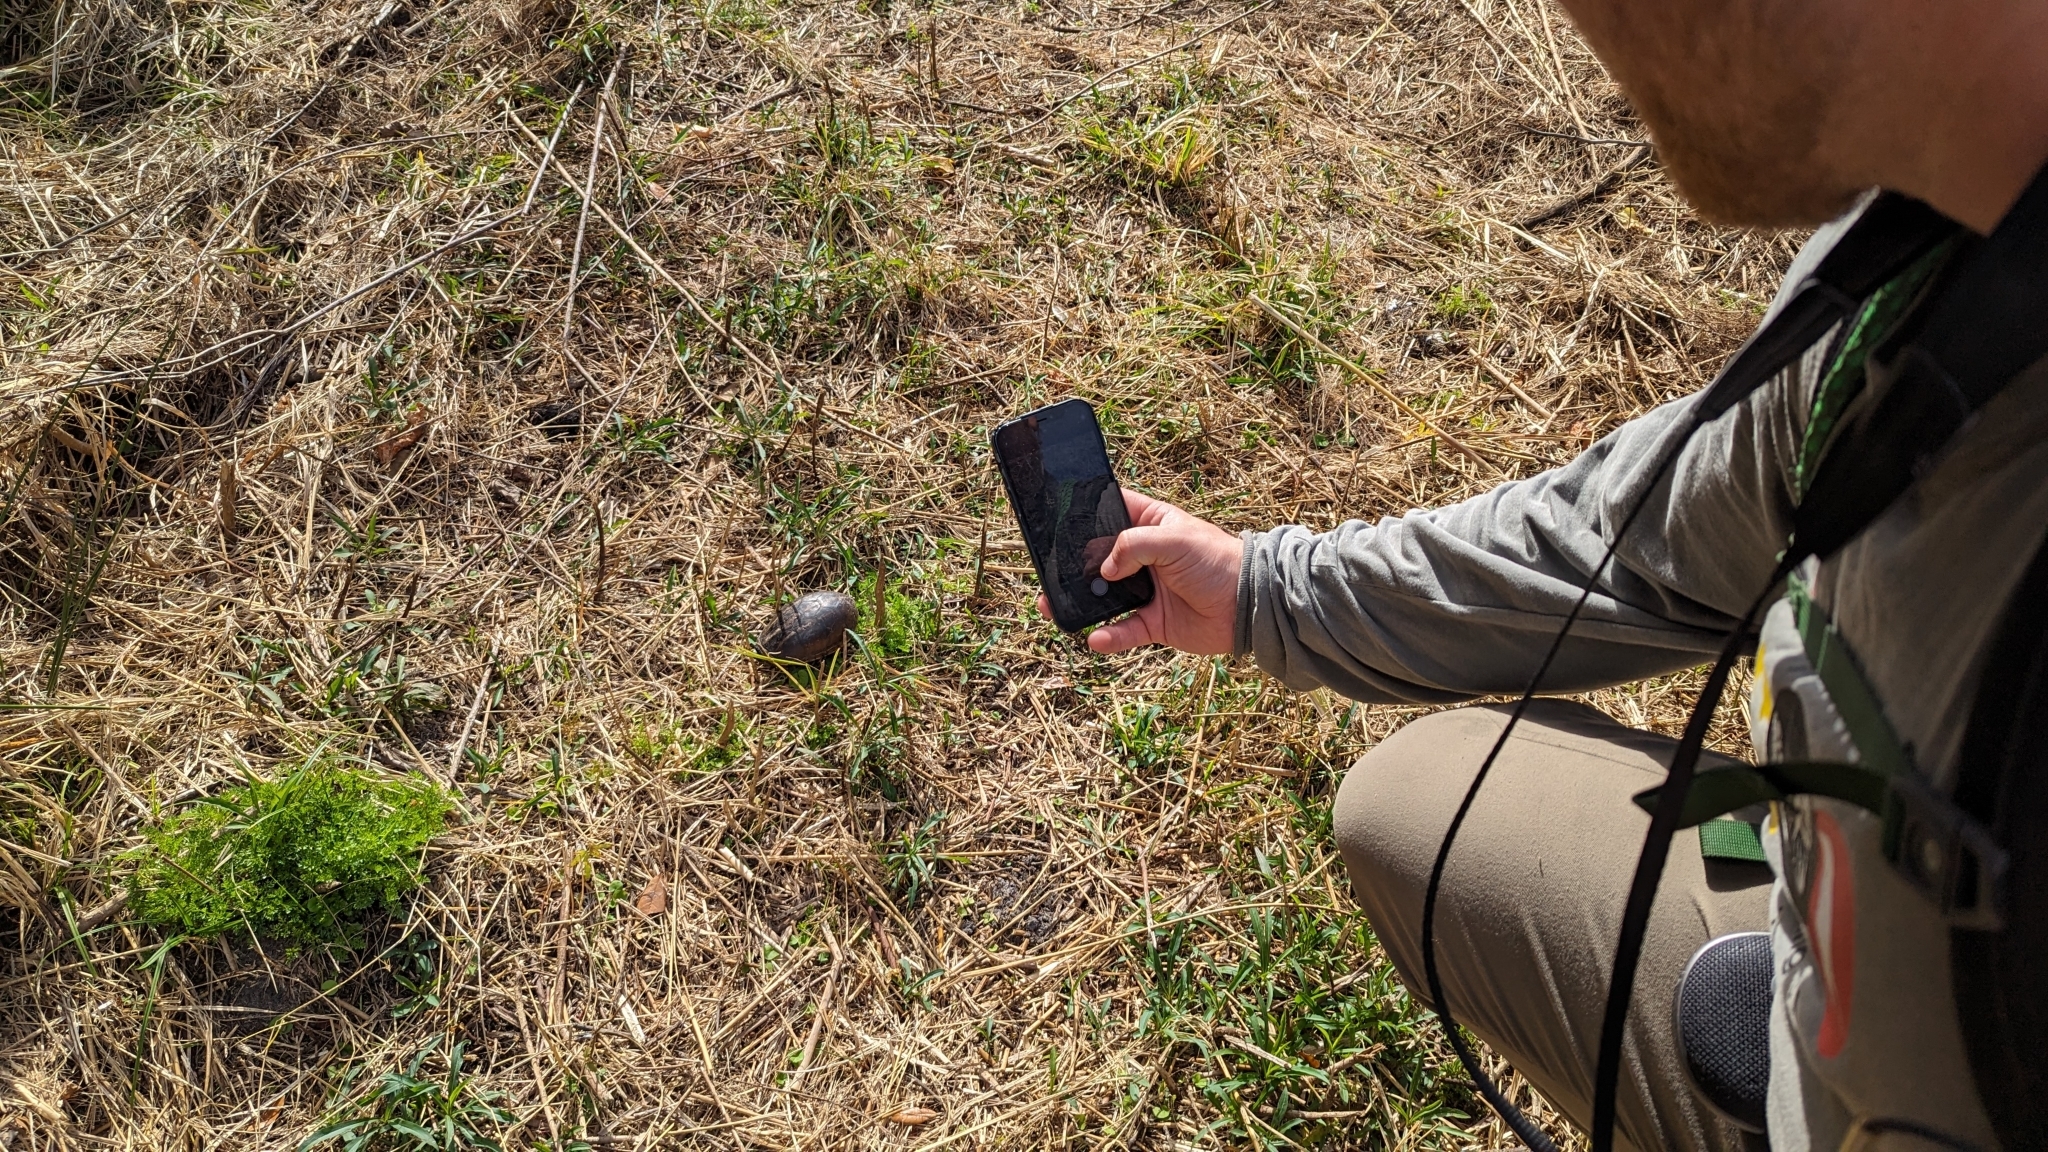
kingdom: Animalia
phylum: Chordata
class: Testudines
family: Kinosternidae
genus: Kinosternon
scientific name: Kinosternon baurii
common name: Striped mud turtle
